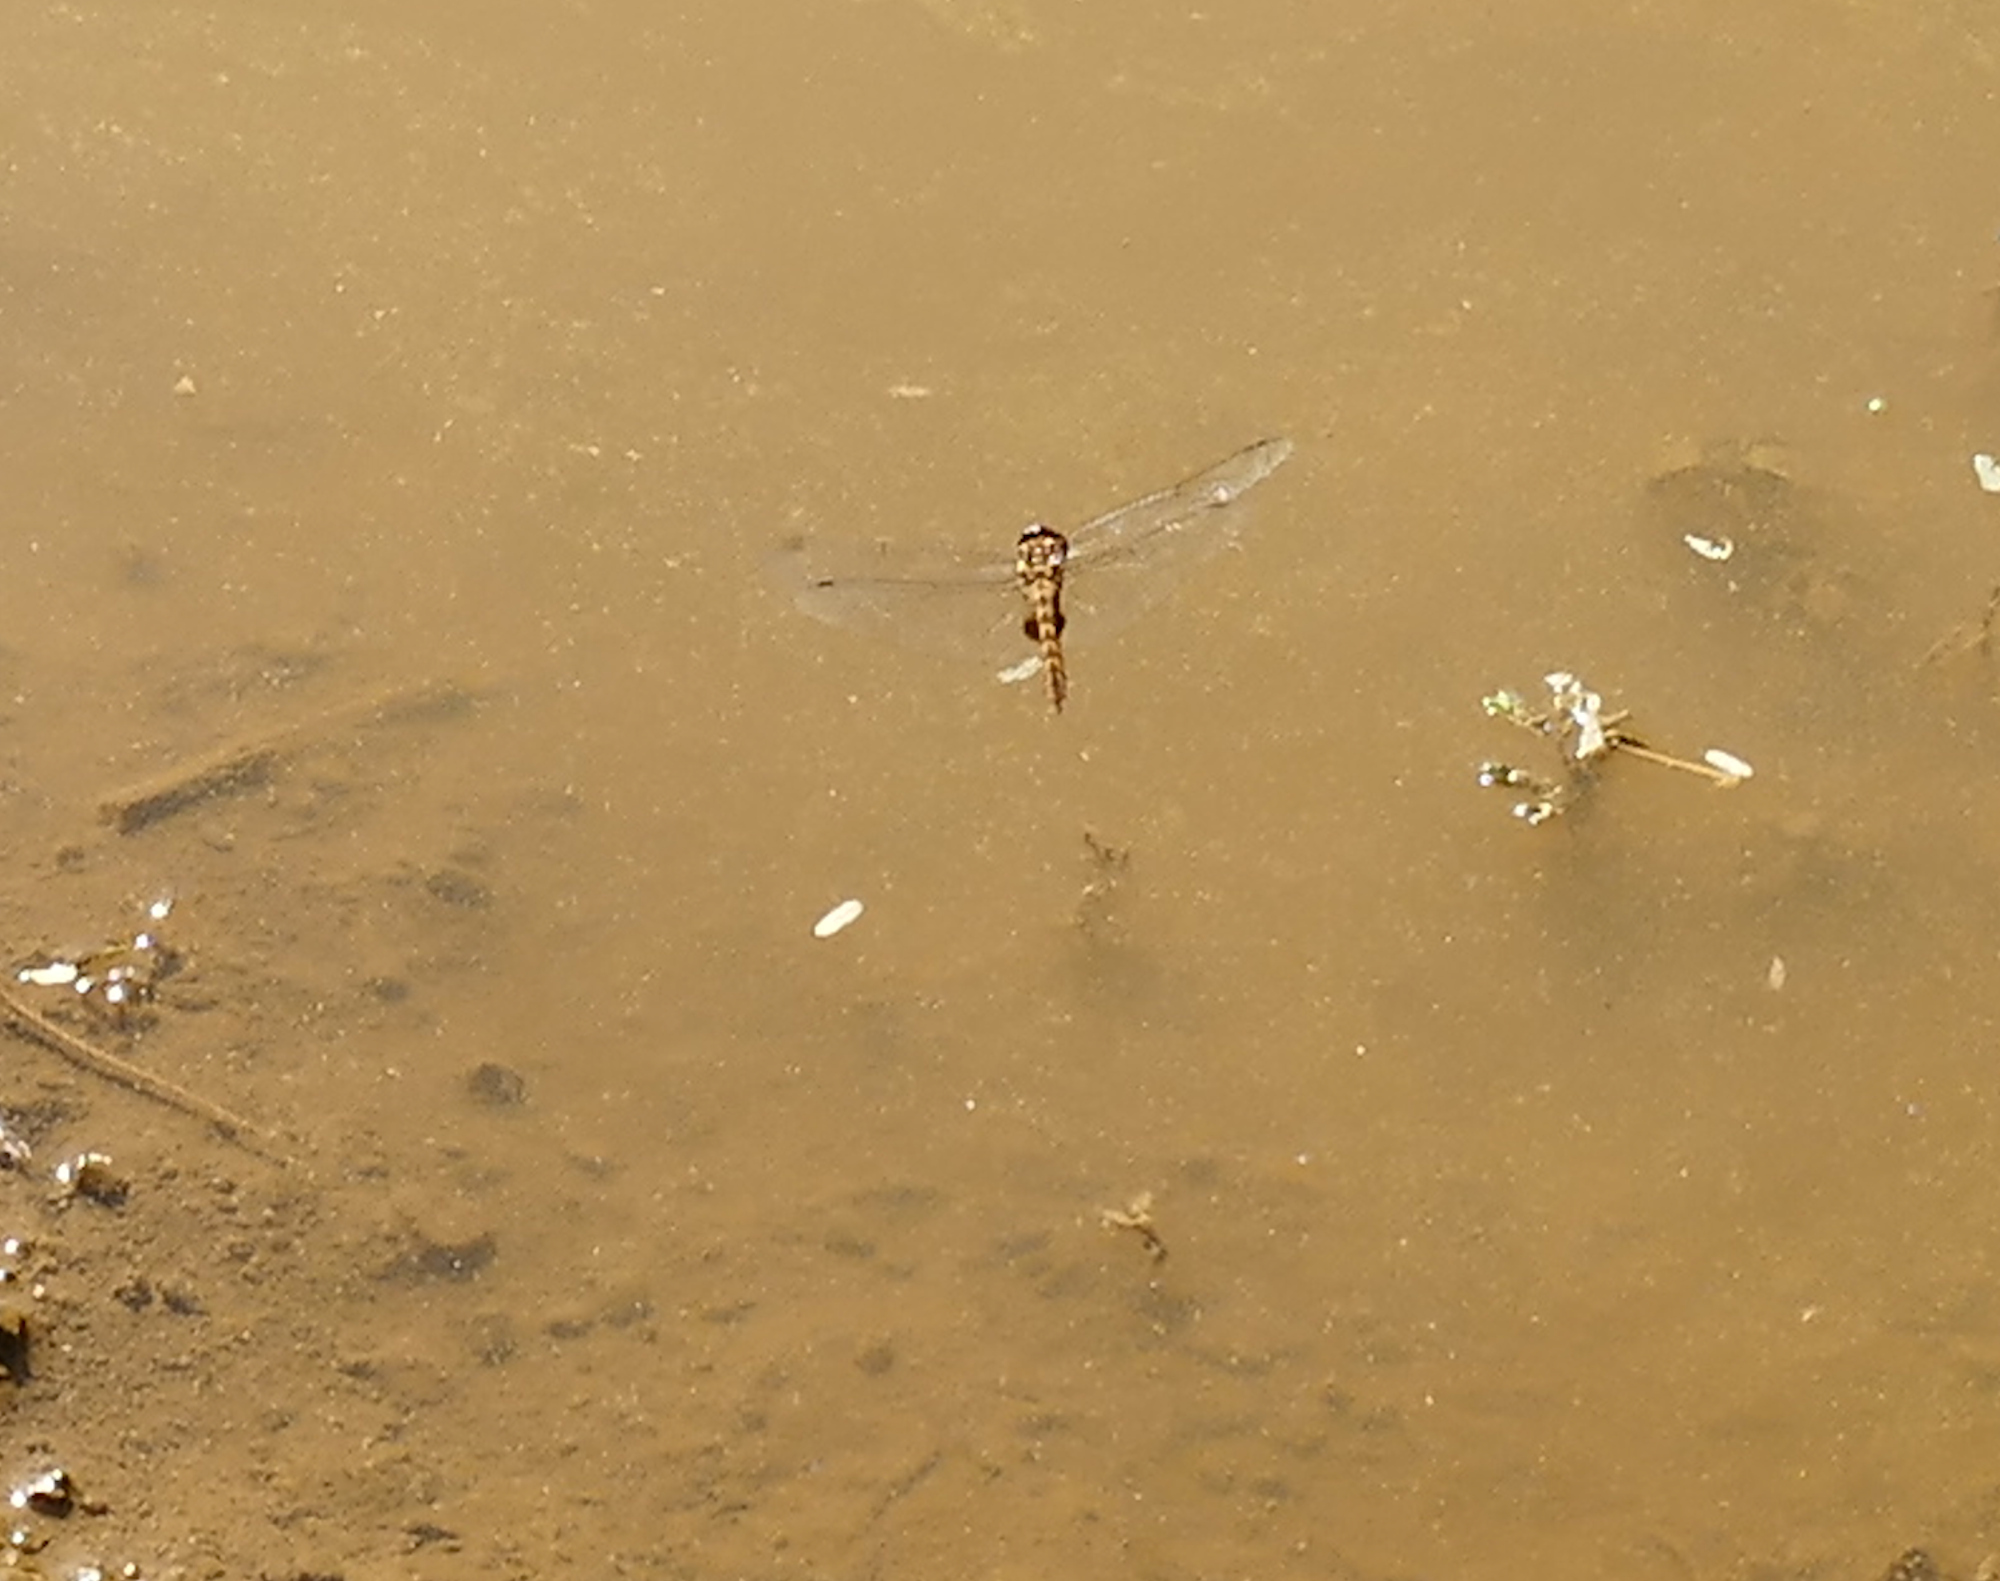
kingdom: Animalia
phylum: Arthropoda
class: Insecta
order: Odonata
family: Libellulidae
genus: Pantala
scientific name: Pantala hymenaea
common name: Spot-winged glider
